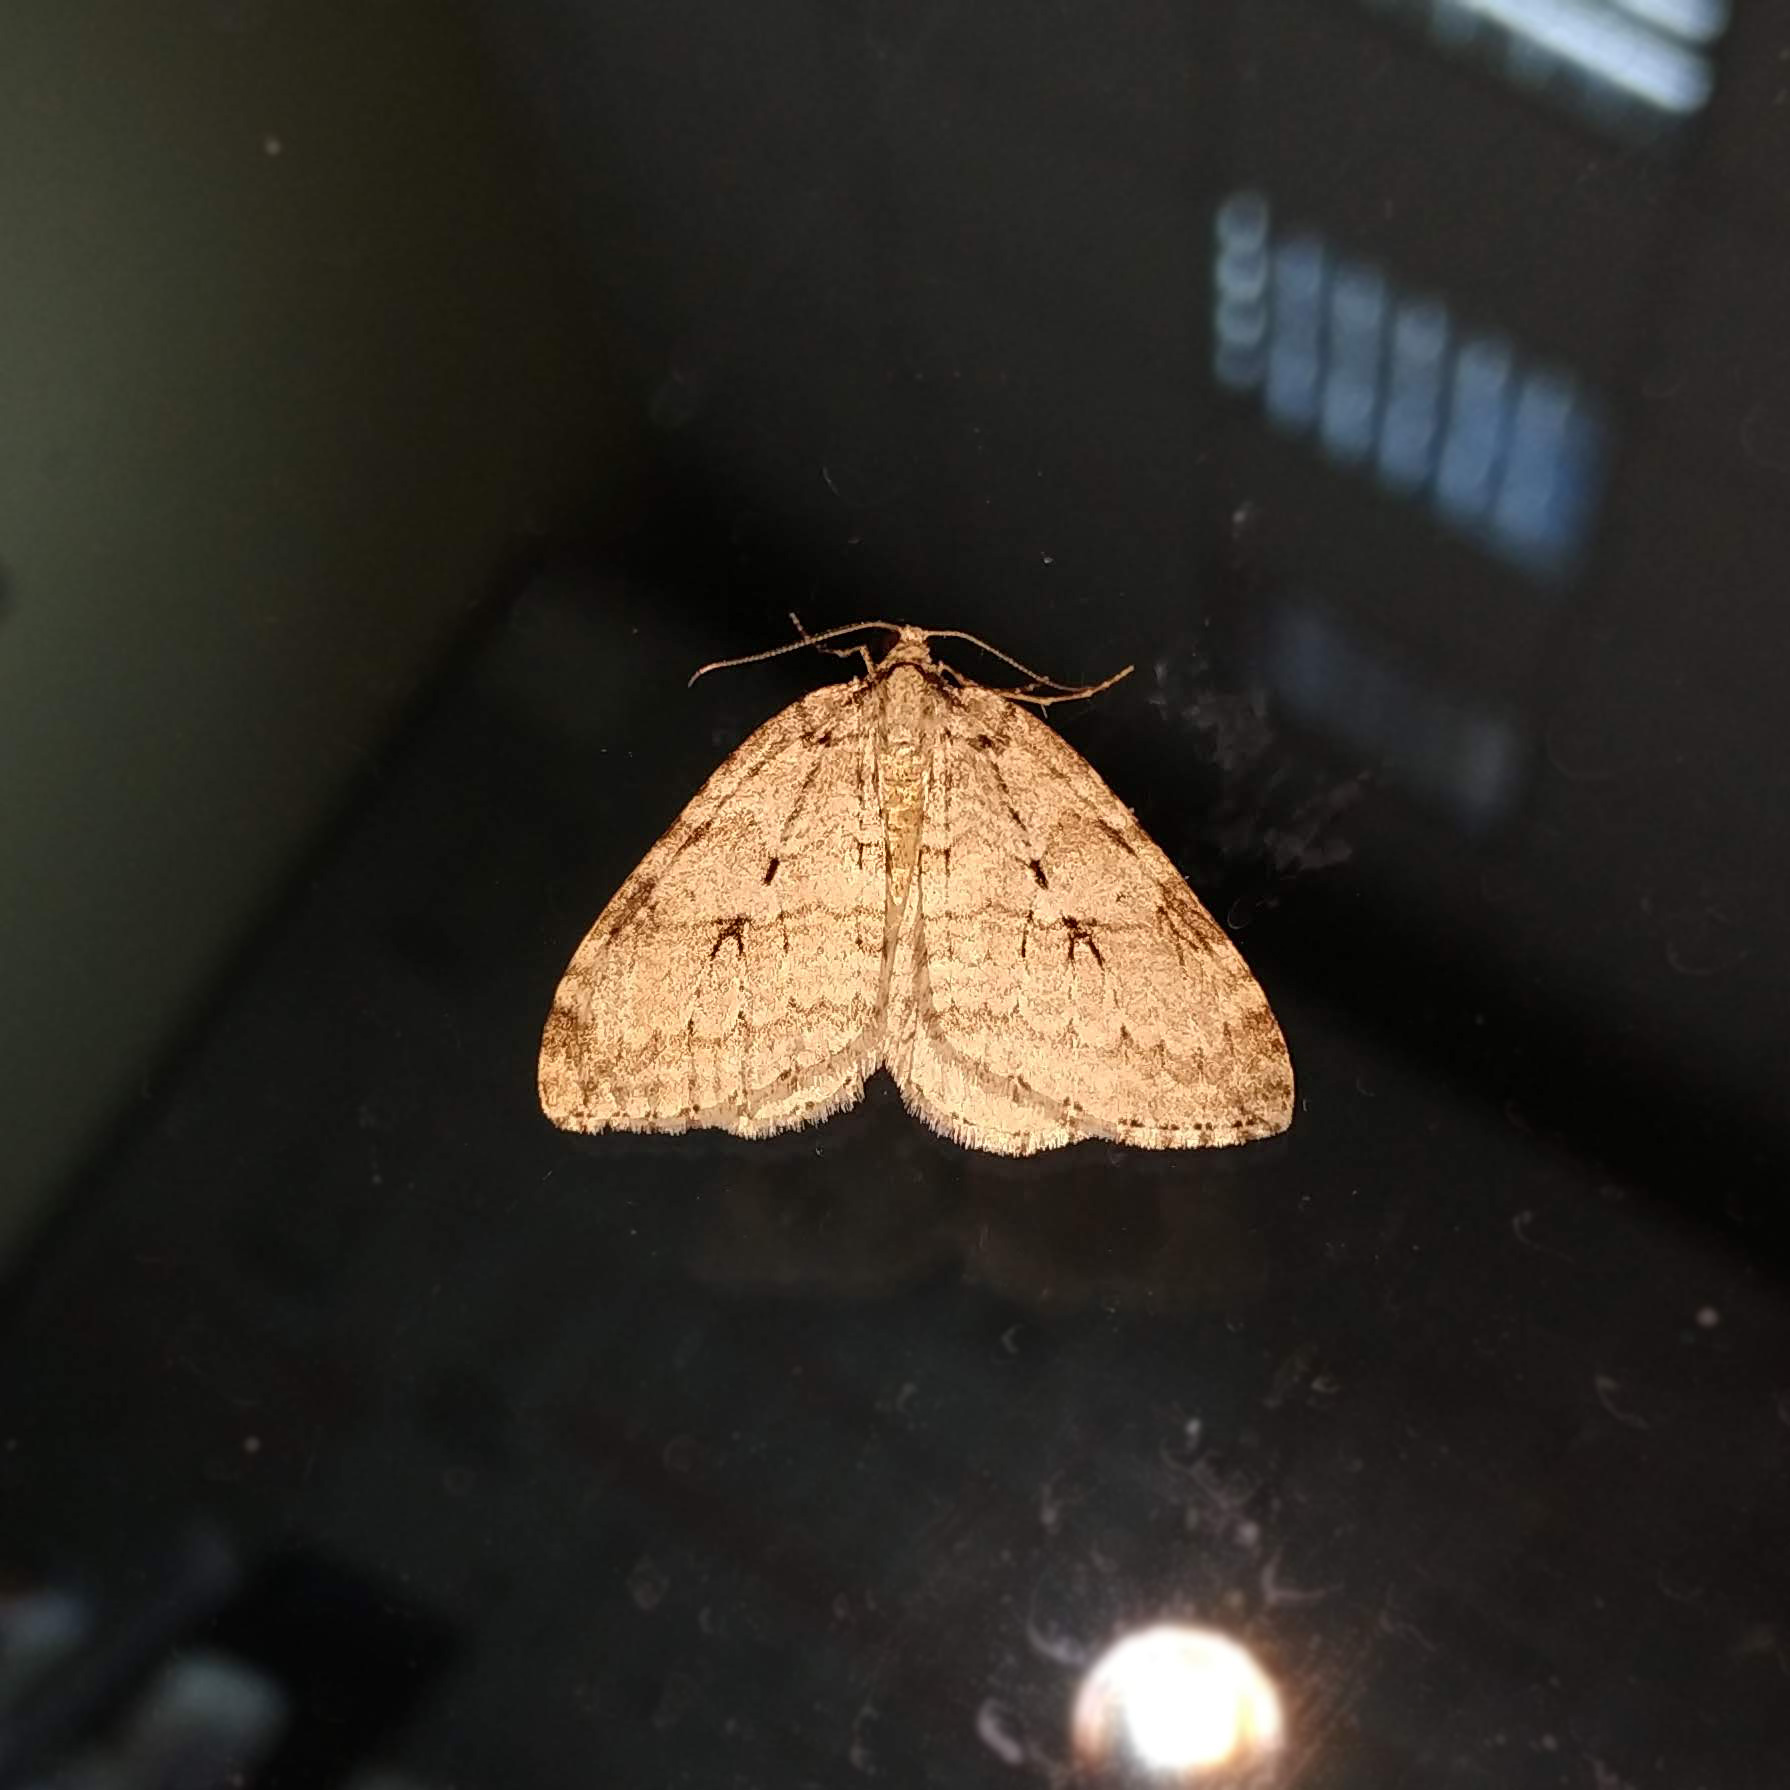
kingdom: Animalia
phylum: Arthropoda
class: Insecta
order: Lepidoptera
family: Geometridae
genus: Epirrita
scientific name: Epirrita autumnata
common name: Autumnal moth
